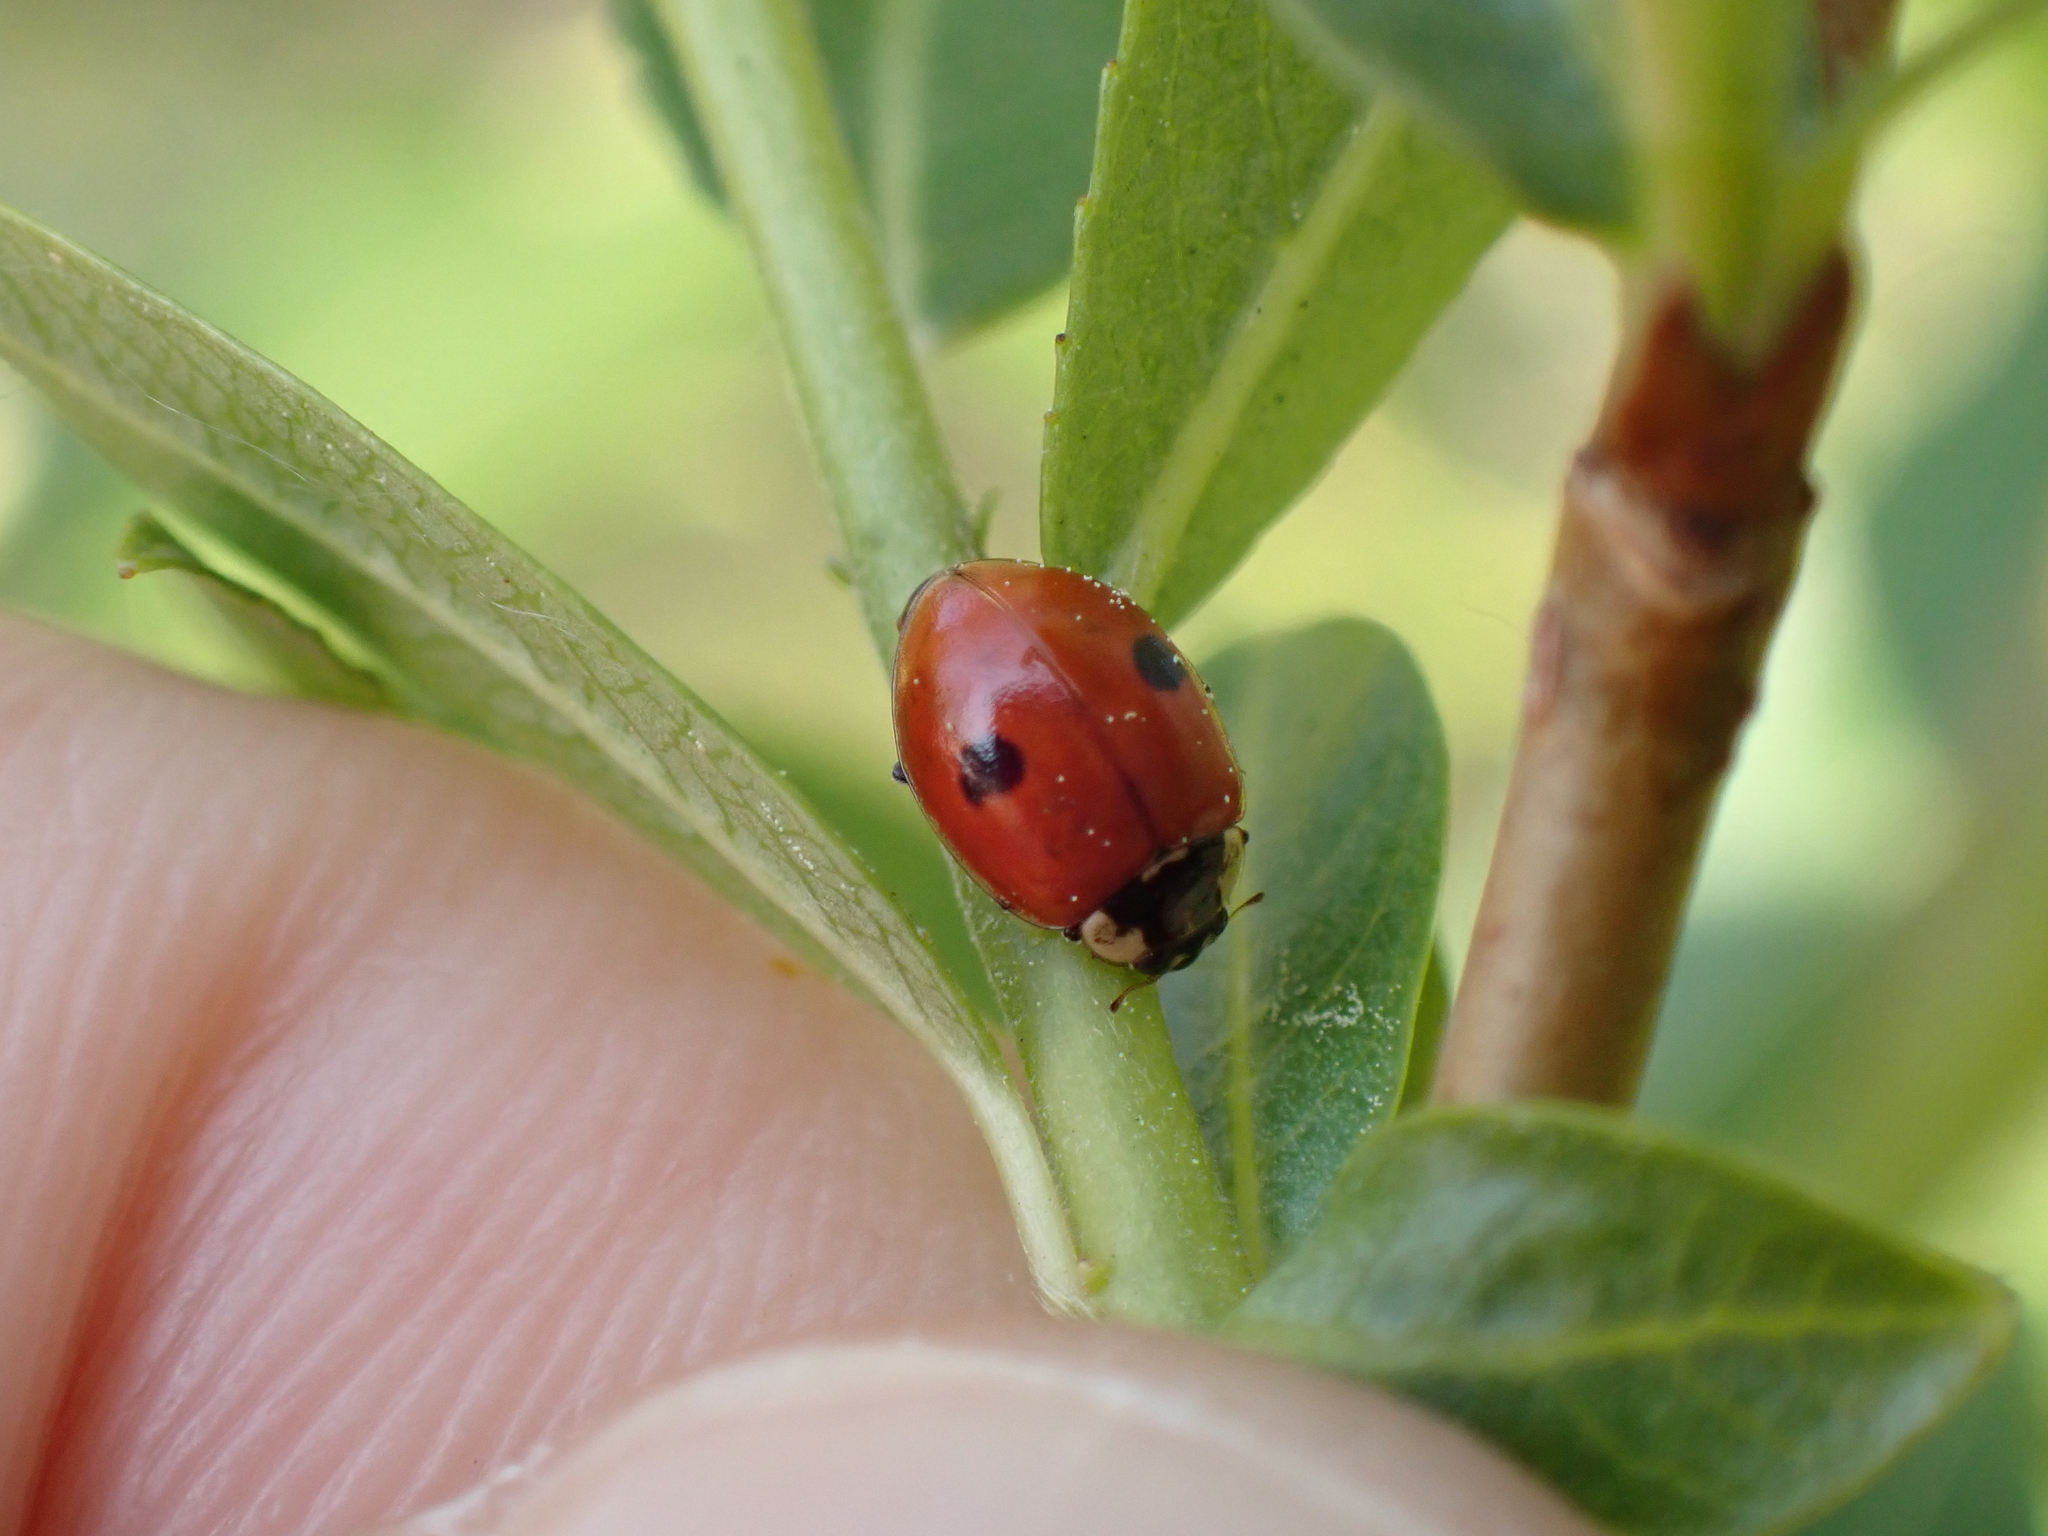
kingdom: Animalia
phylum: Arthropoda
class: Insecta
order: Coleoptera
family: Coccinellidae
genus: Adalia
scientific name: Adalia bipunctata
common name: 2-spot ladybird
